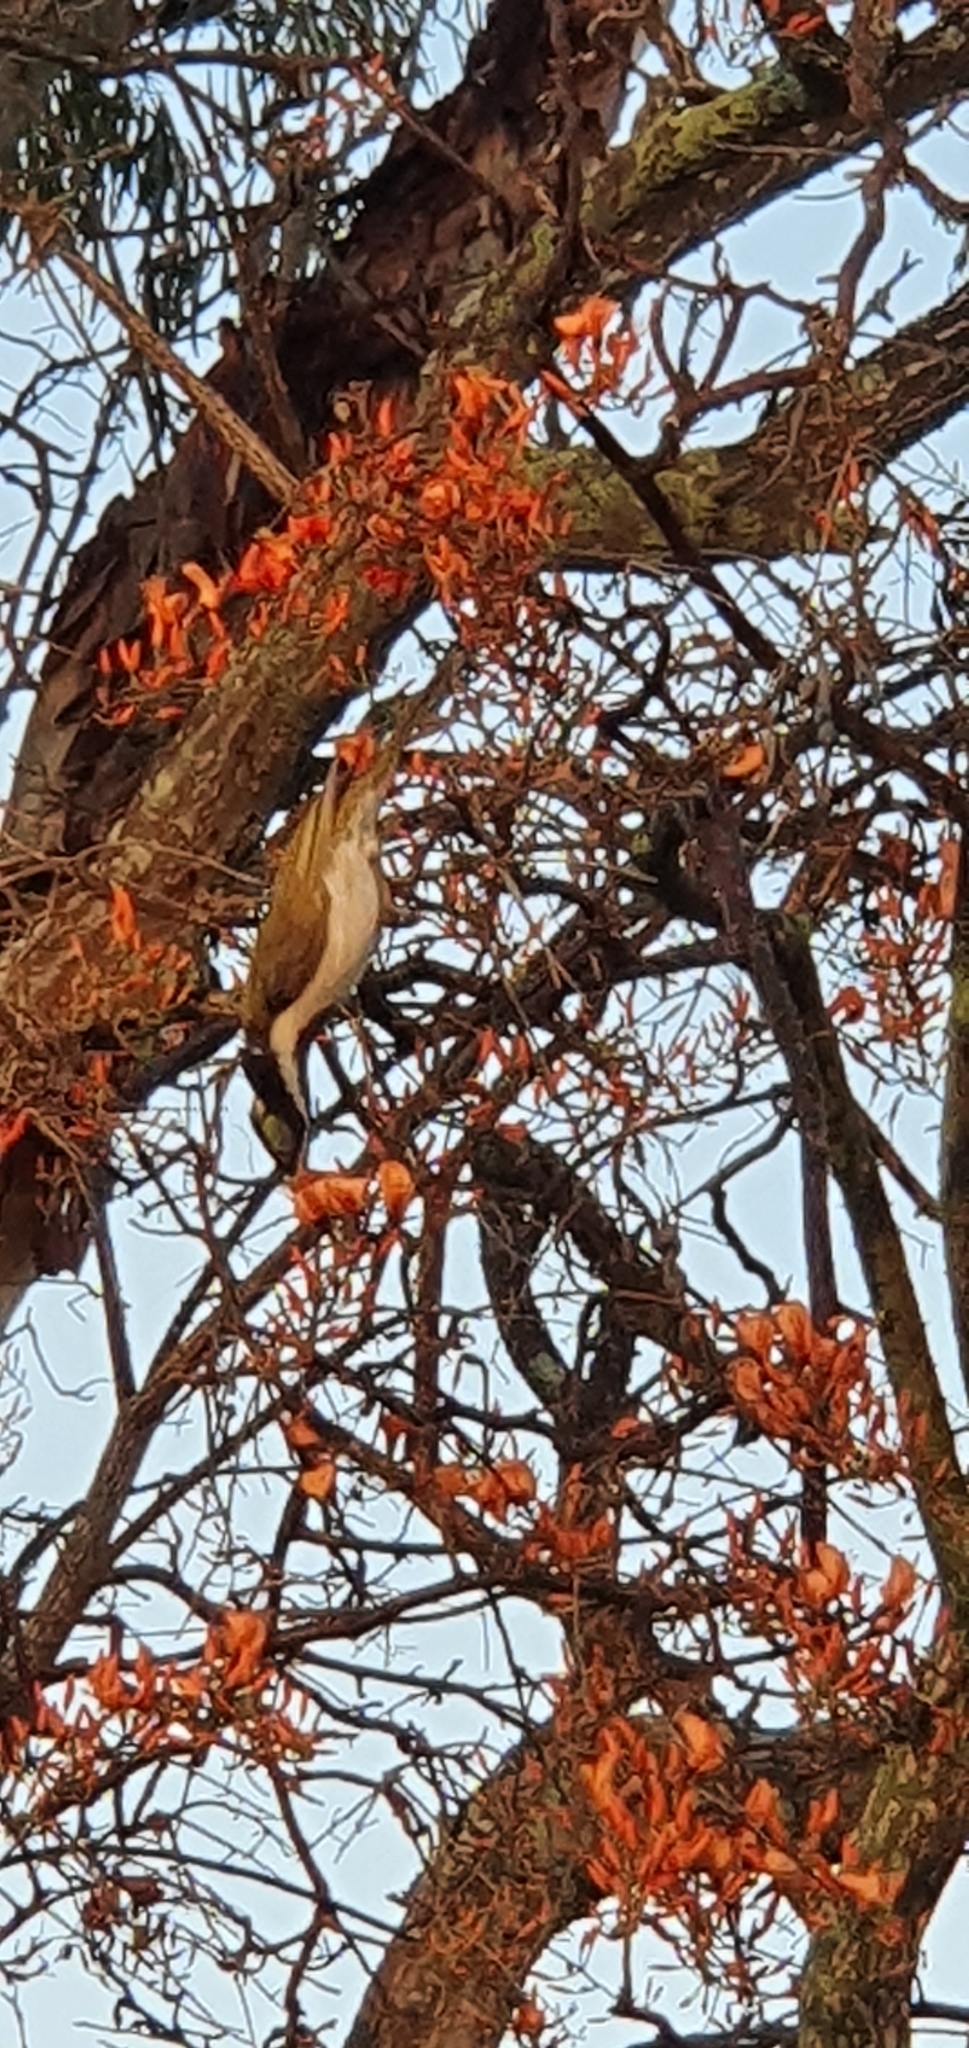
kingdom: Animalia
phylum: Chordata
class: Aves
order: Passeriformes
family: Meliphagidae
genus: Entomyzon
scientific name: Entomyzon cyanotis
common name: Blue-faced honeyeater
